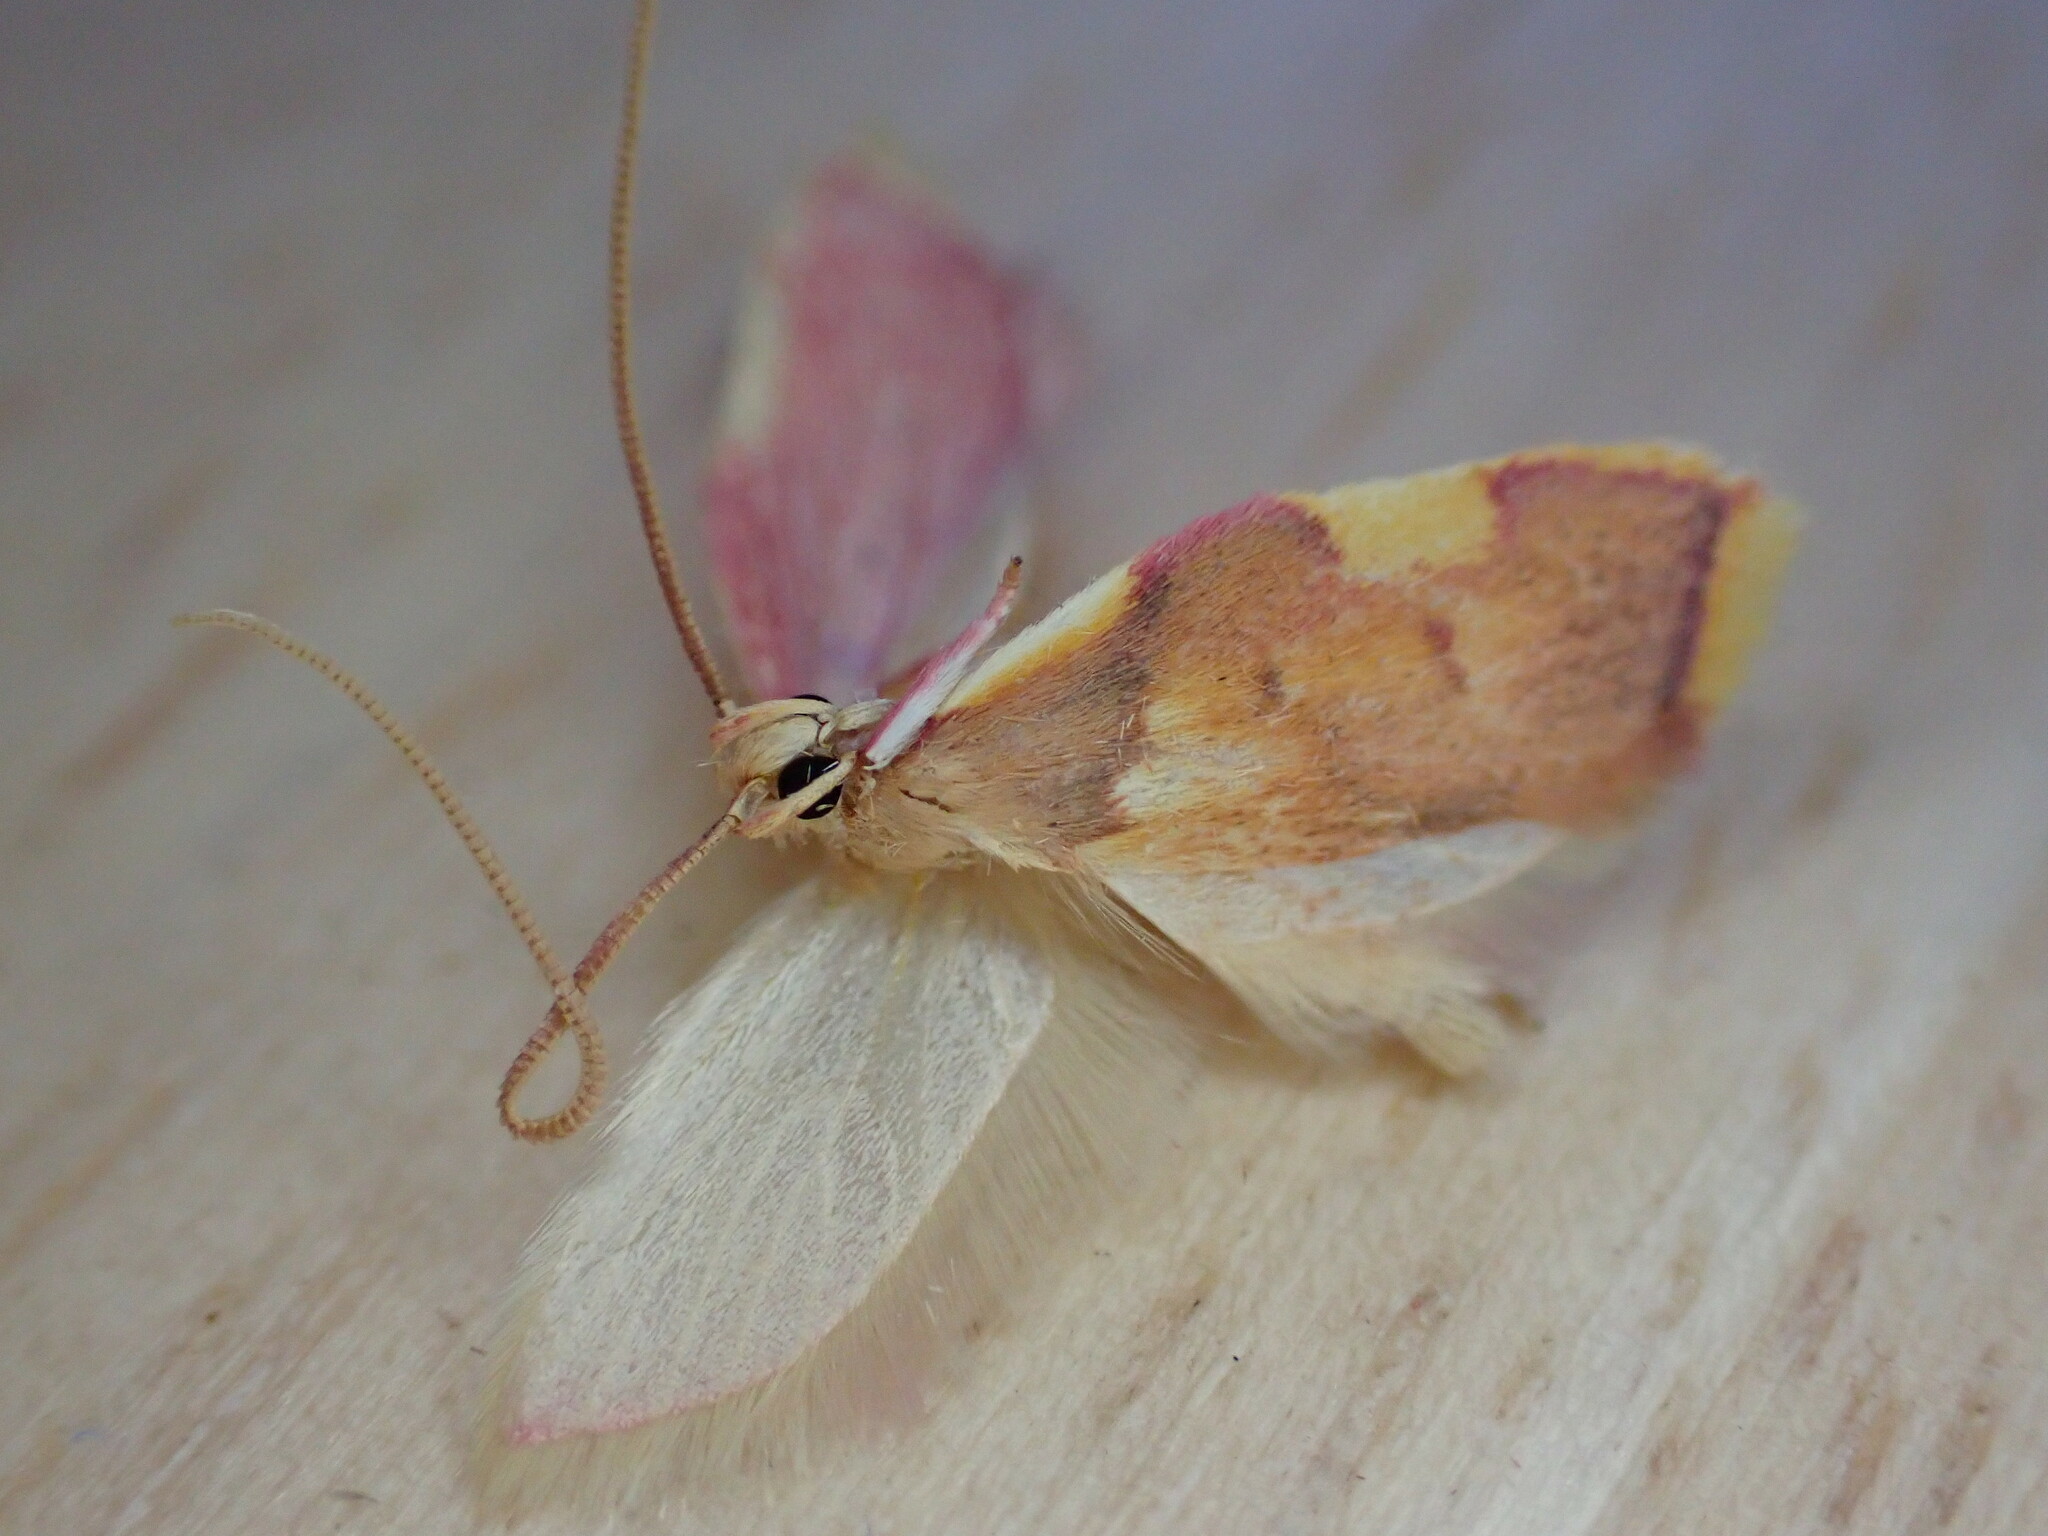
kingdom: Animalia
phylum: Arthropoda
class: Insecta
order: Lepidoptera
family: Peleopodidae
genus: Carcina
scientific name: Carcina quercana
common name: Moth
